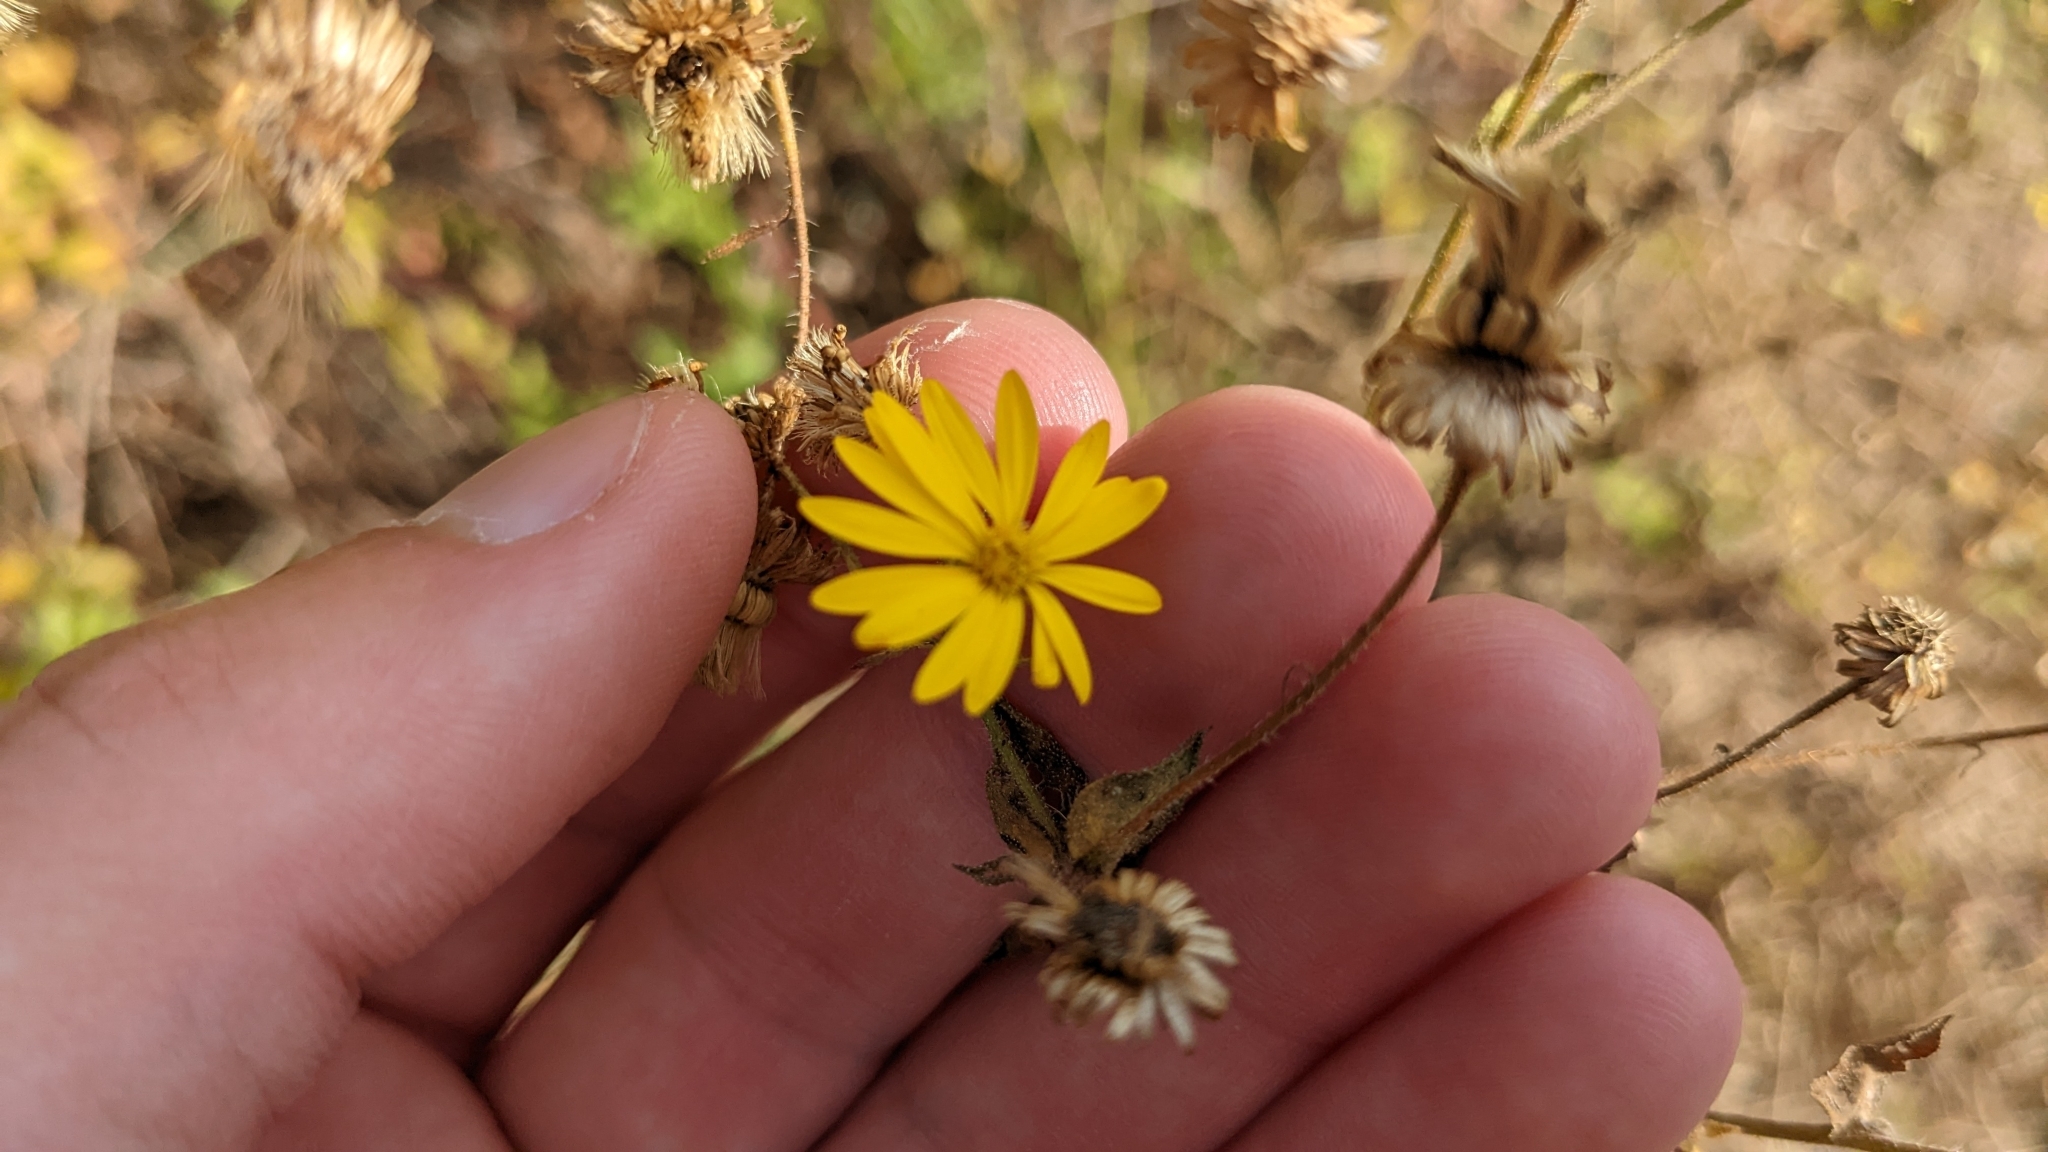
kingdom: Plantae
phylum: Tracheophyta
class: Magnoliopsida
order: Asterales
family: Asteraceae
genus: Heterotheca
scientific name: Heterotheca subaxillaris
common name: Camphorweed
